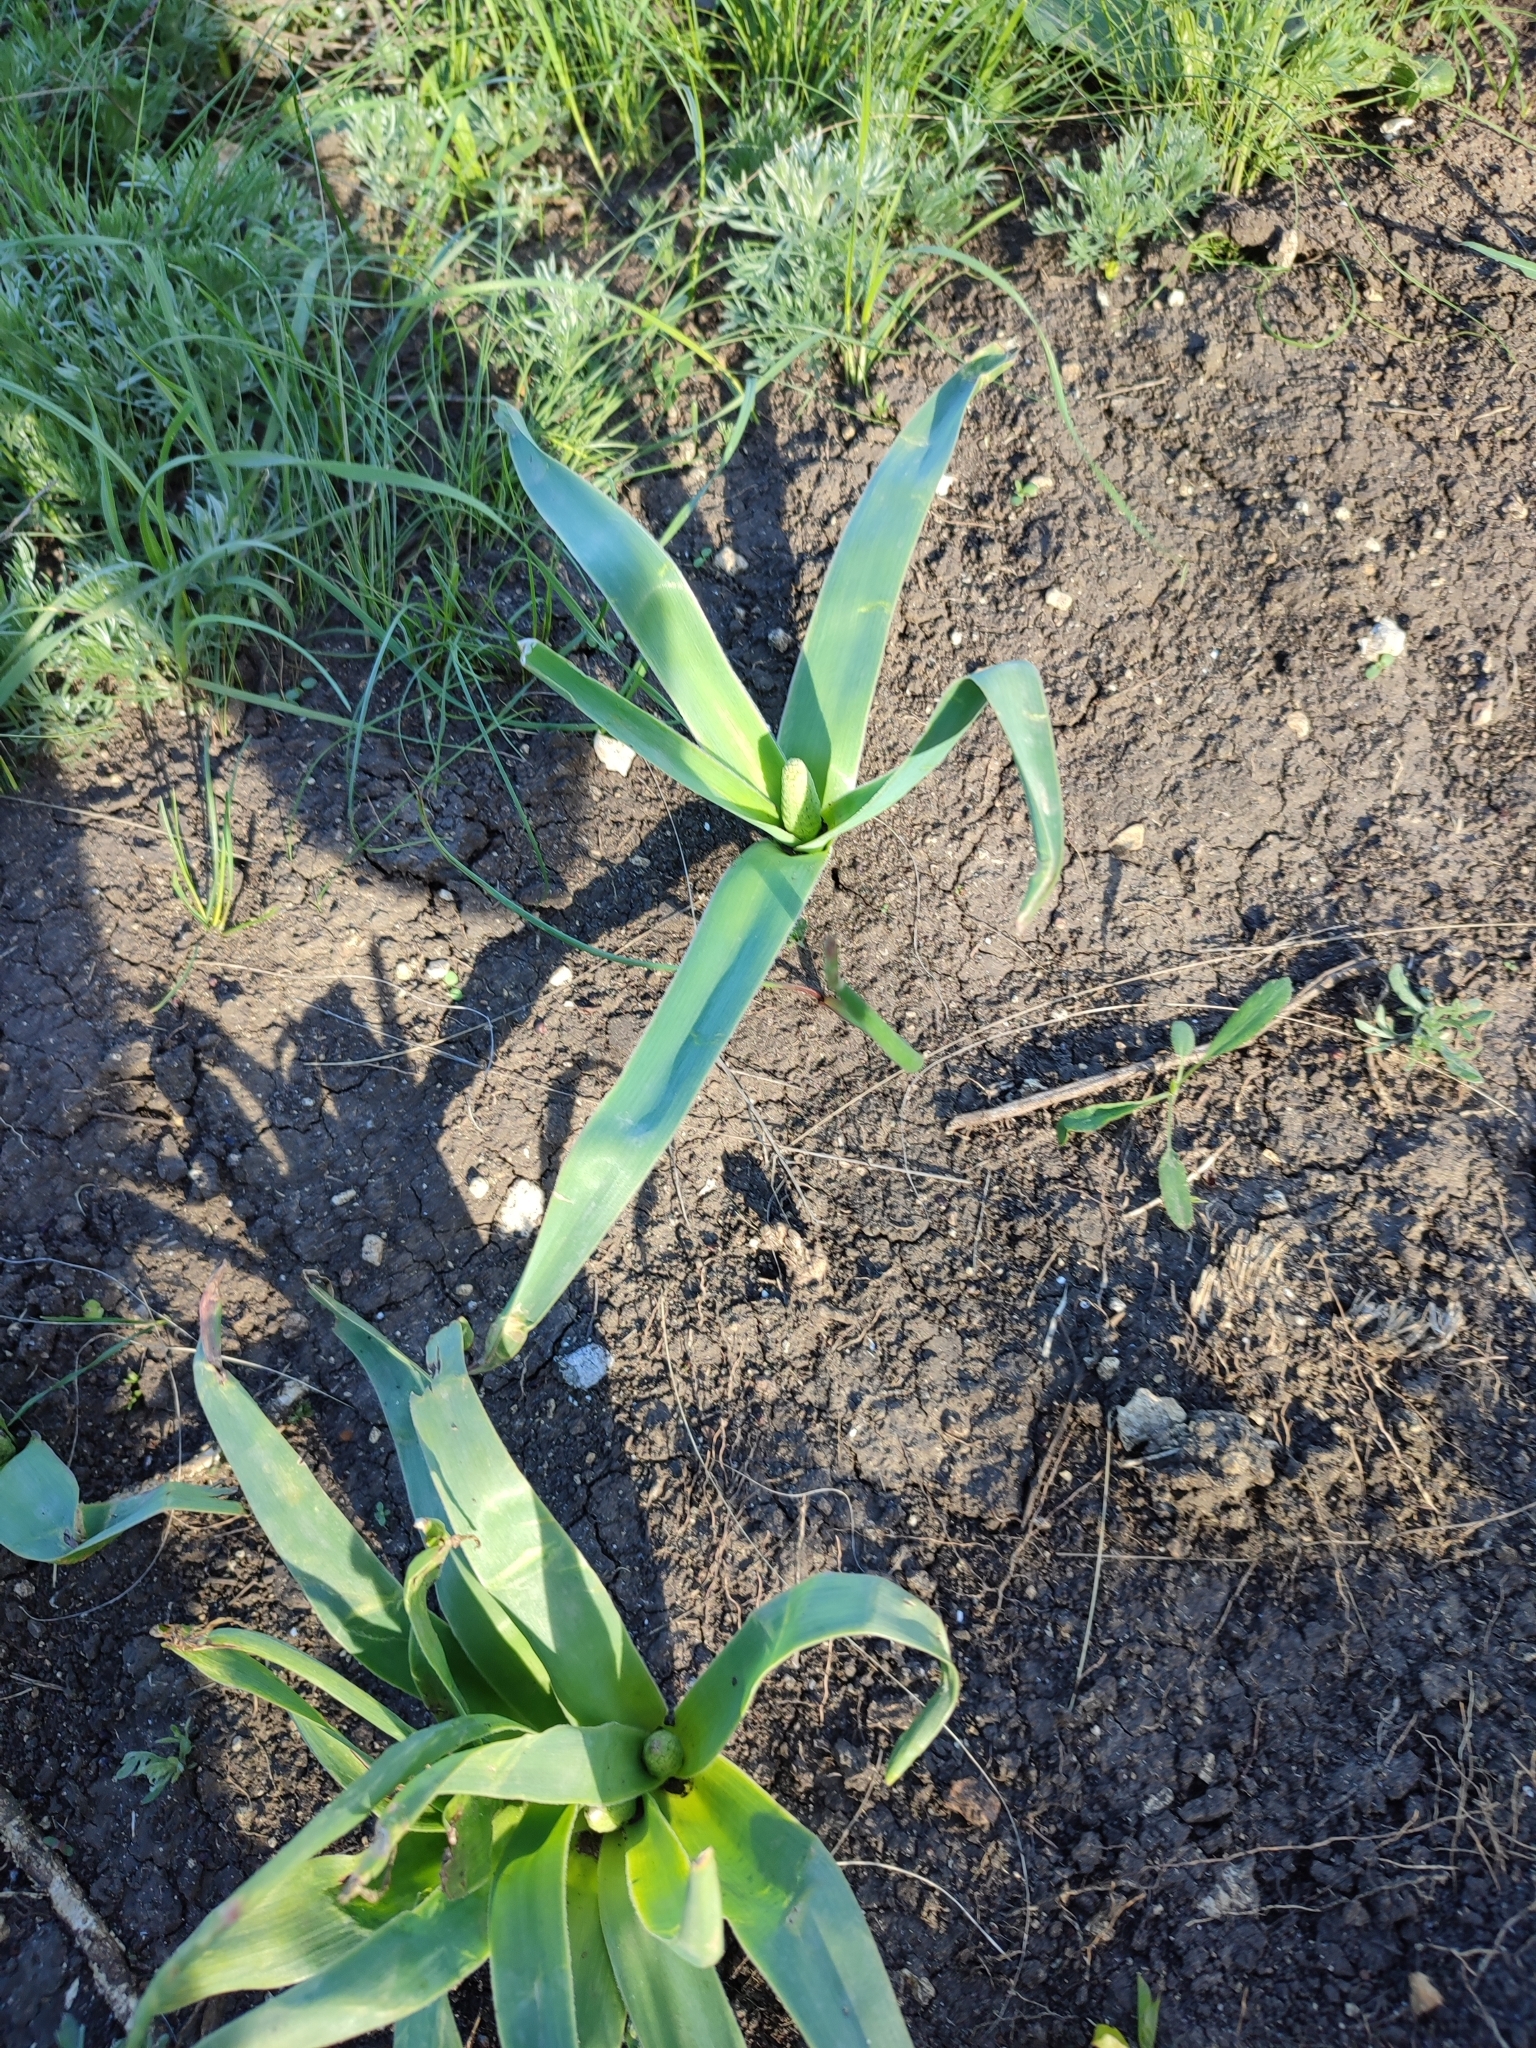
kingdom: Plantae
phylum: Tracheophyta
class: Liliopsida
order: Asparagales
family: Asparagaceae
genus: Bellevalia
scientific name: Bellevalia speciosa
